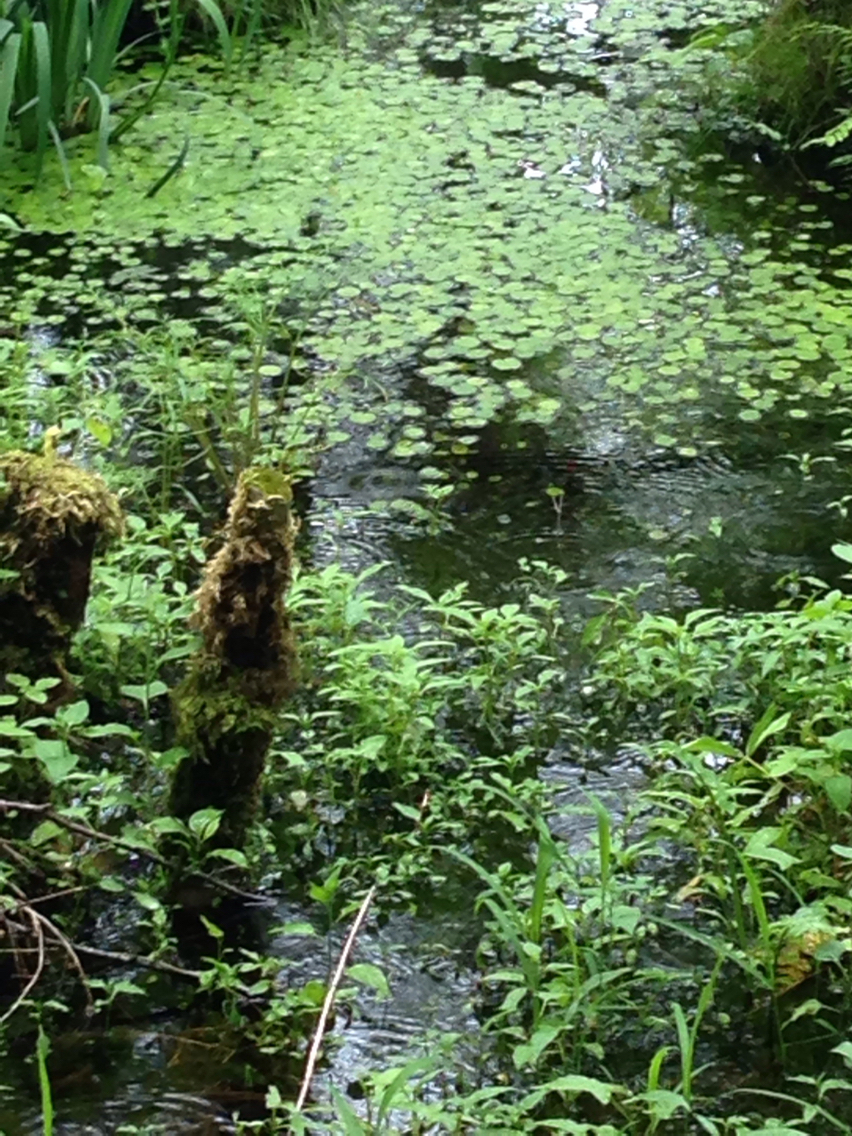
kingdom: Plantae
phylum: Tracheophyta
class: Liliopsida
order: Alismatales
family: Hydrocharitaceae
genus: Hydrocharis
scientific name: Hydrocharis morsus-ranae
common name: Frogbit
